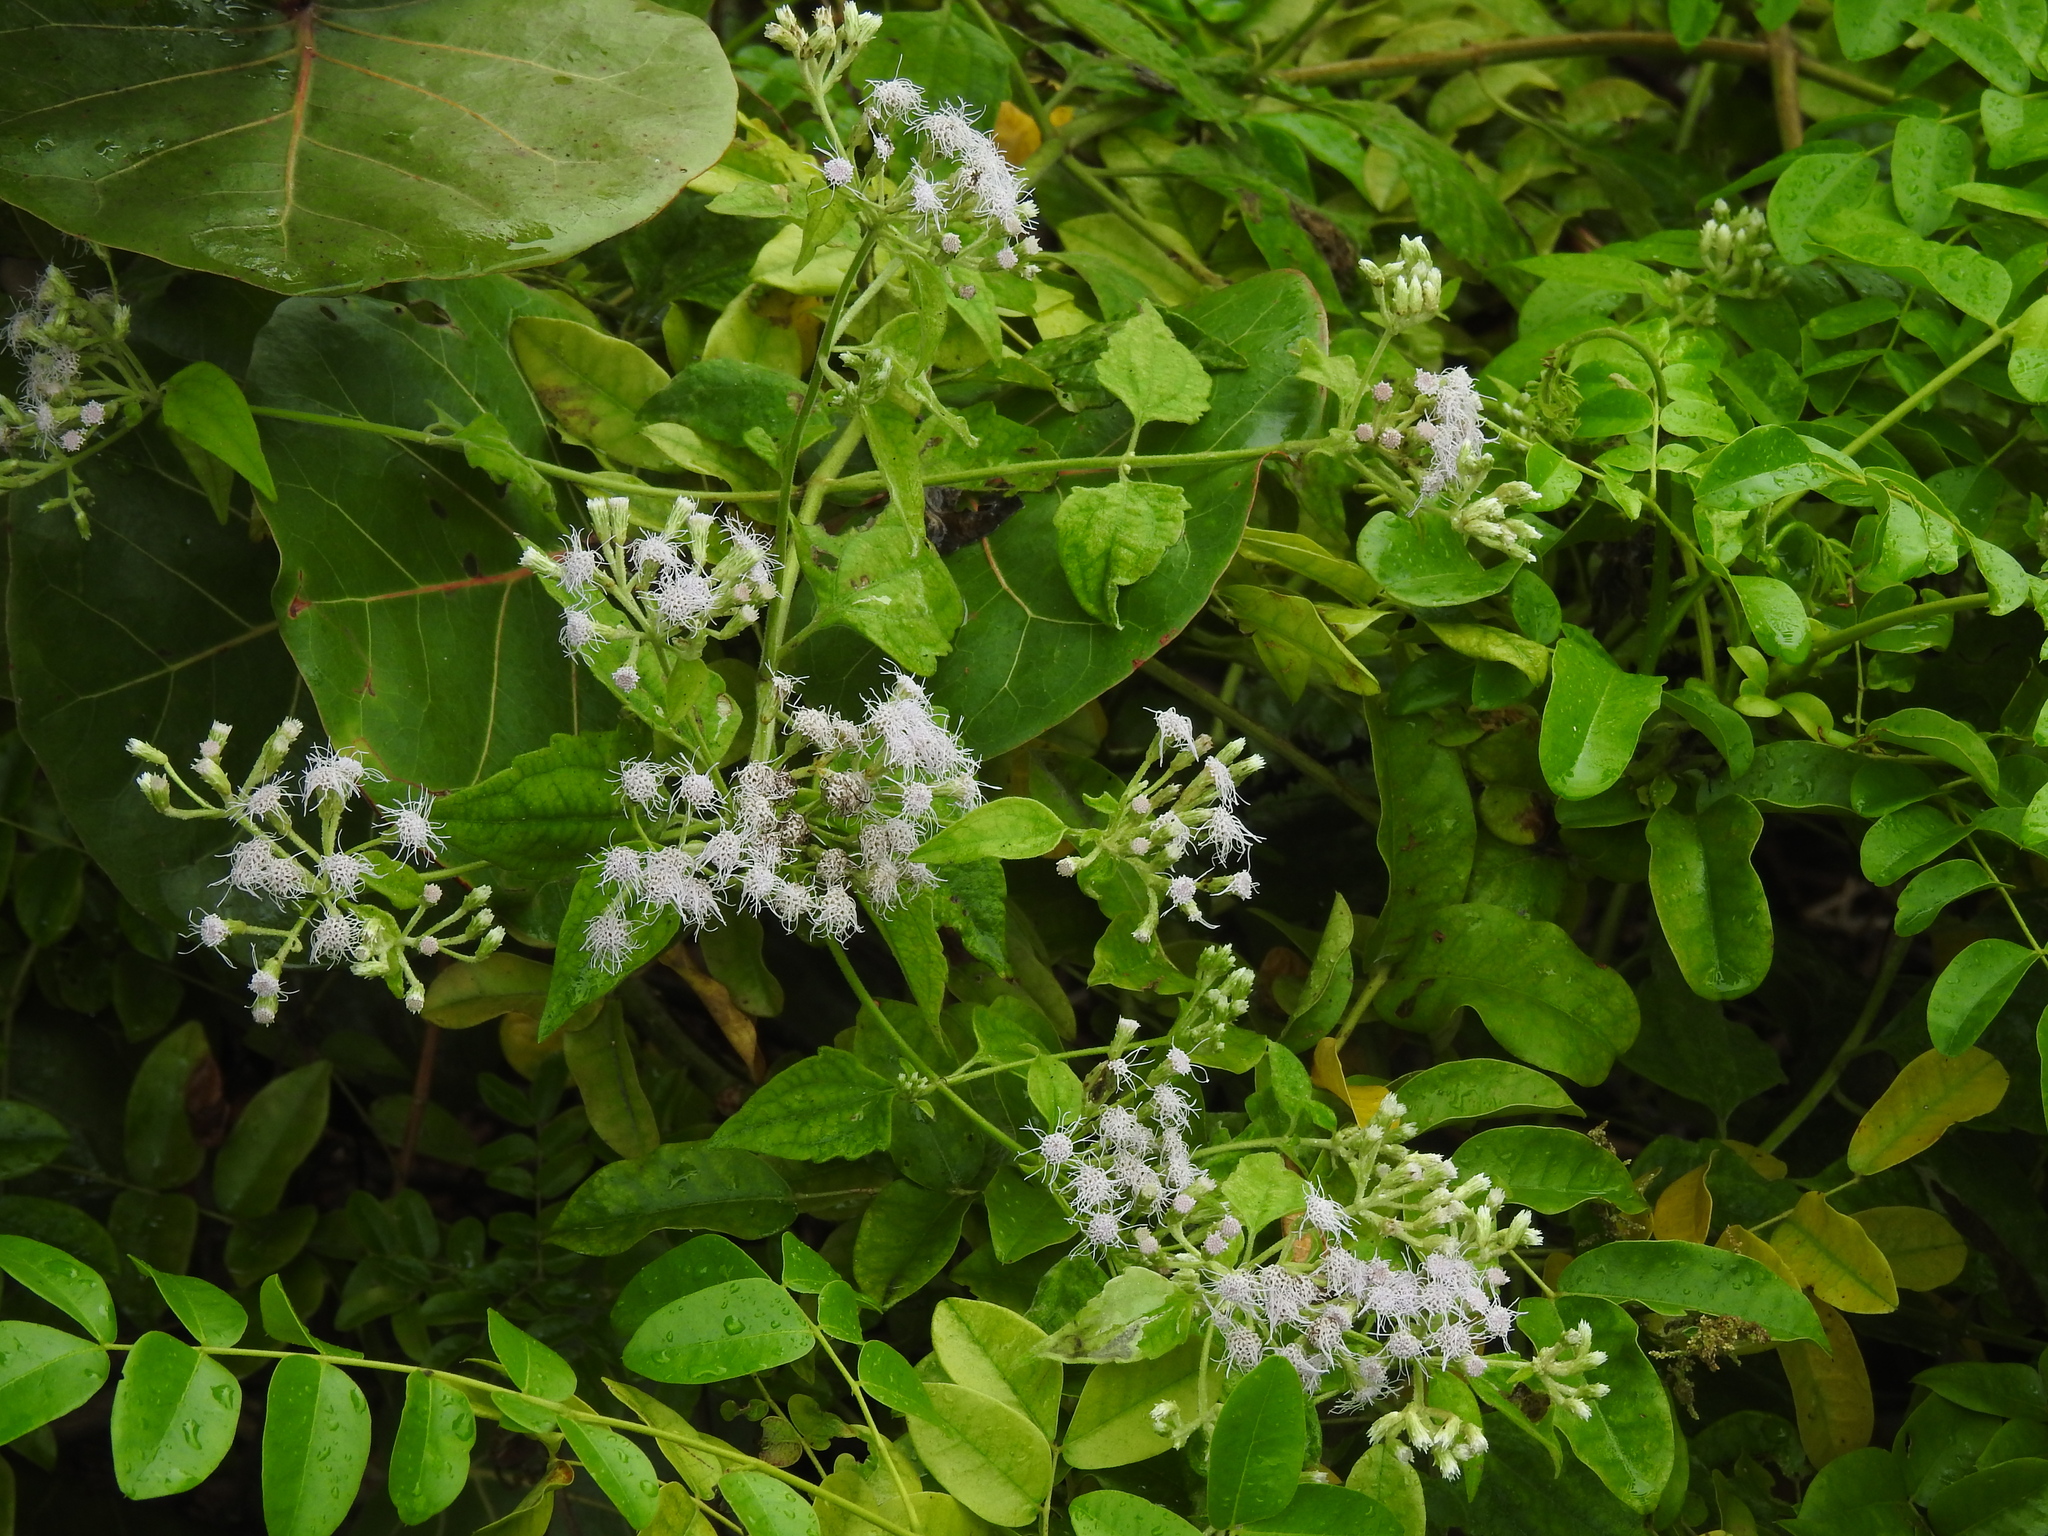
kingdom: Plantae
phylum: Tracheophyta
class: Magnoliopsida
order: Asterales
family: Asteraceae
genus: Chromolaena
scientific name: Chromolaena odorata
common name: Siamweed
